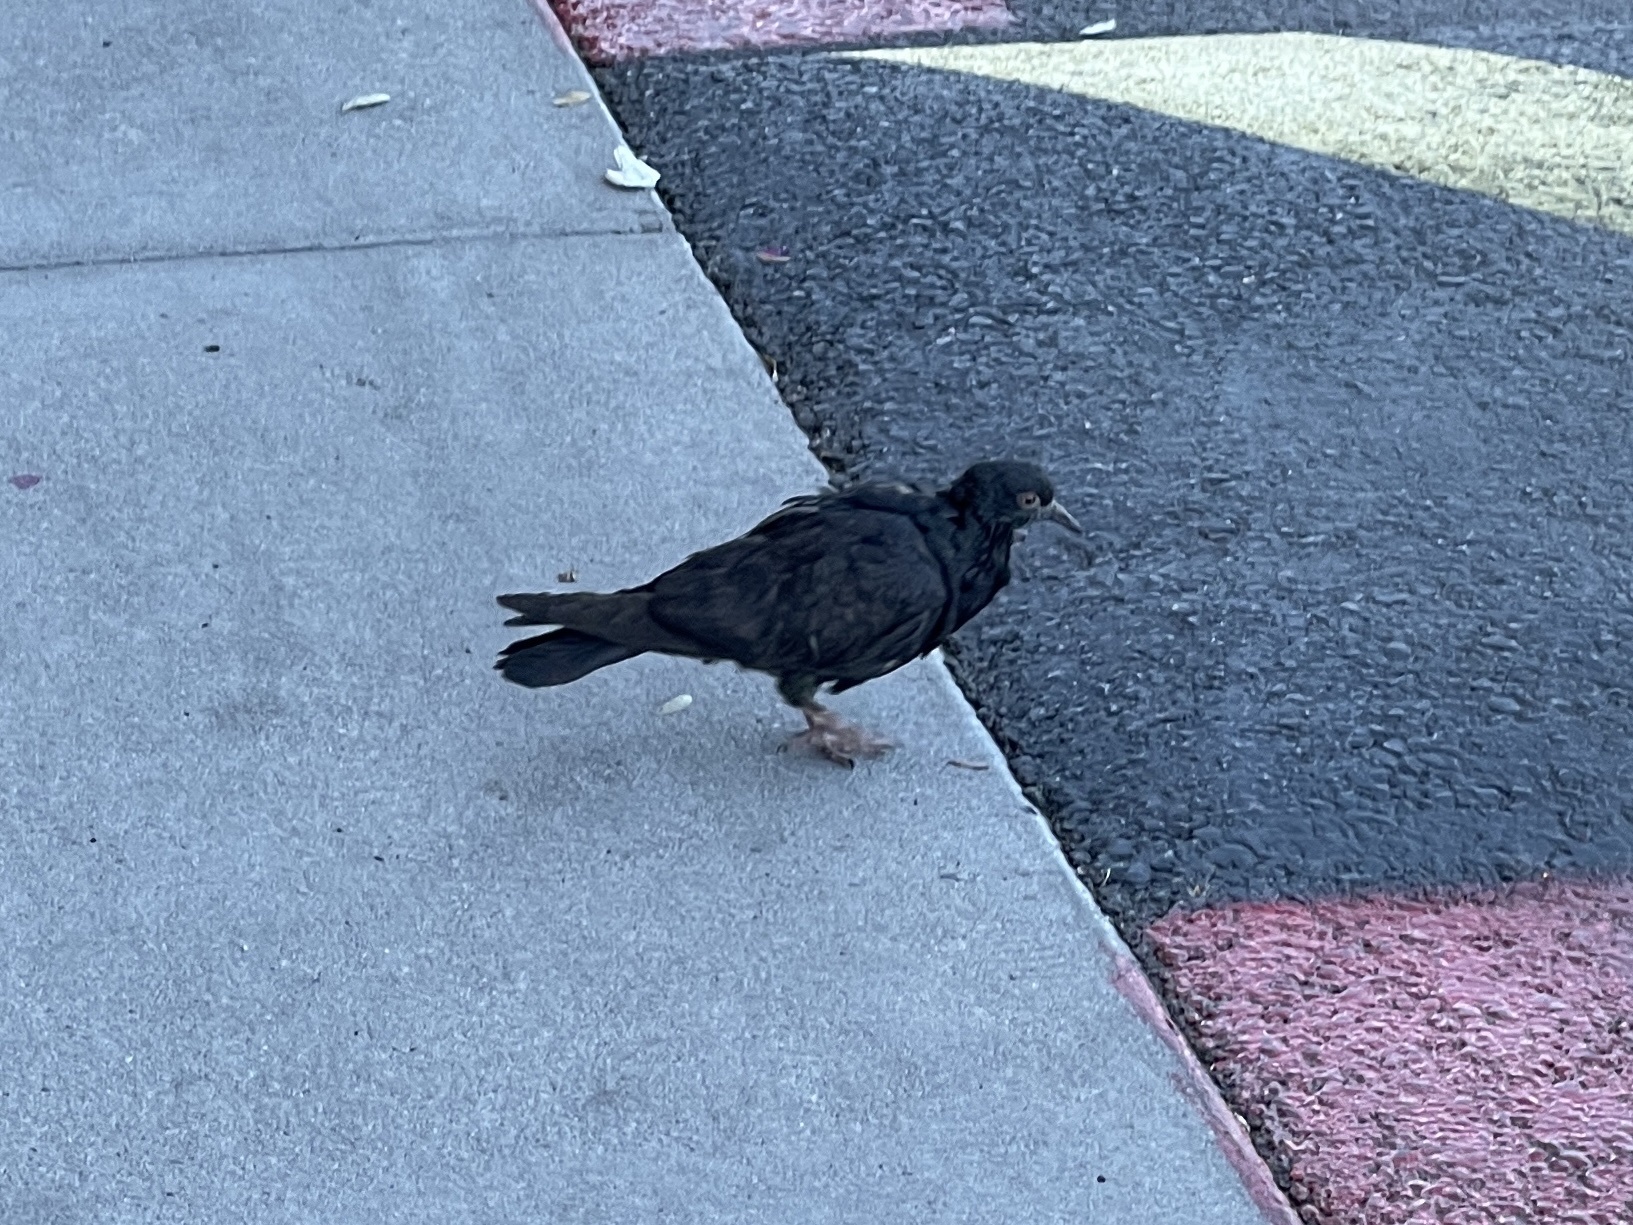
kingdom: Animalia
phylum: Chordata
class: Aves
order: Columbiformes
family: Columbidae
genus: Columba
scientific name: Columba livia
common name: Rock pigeon
